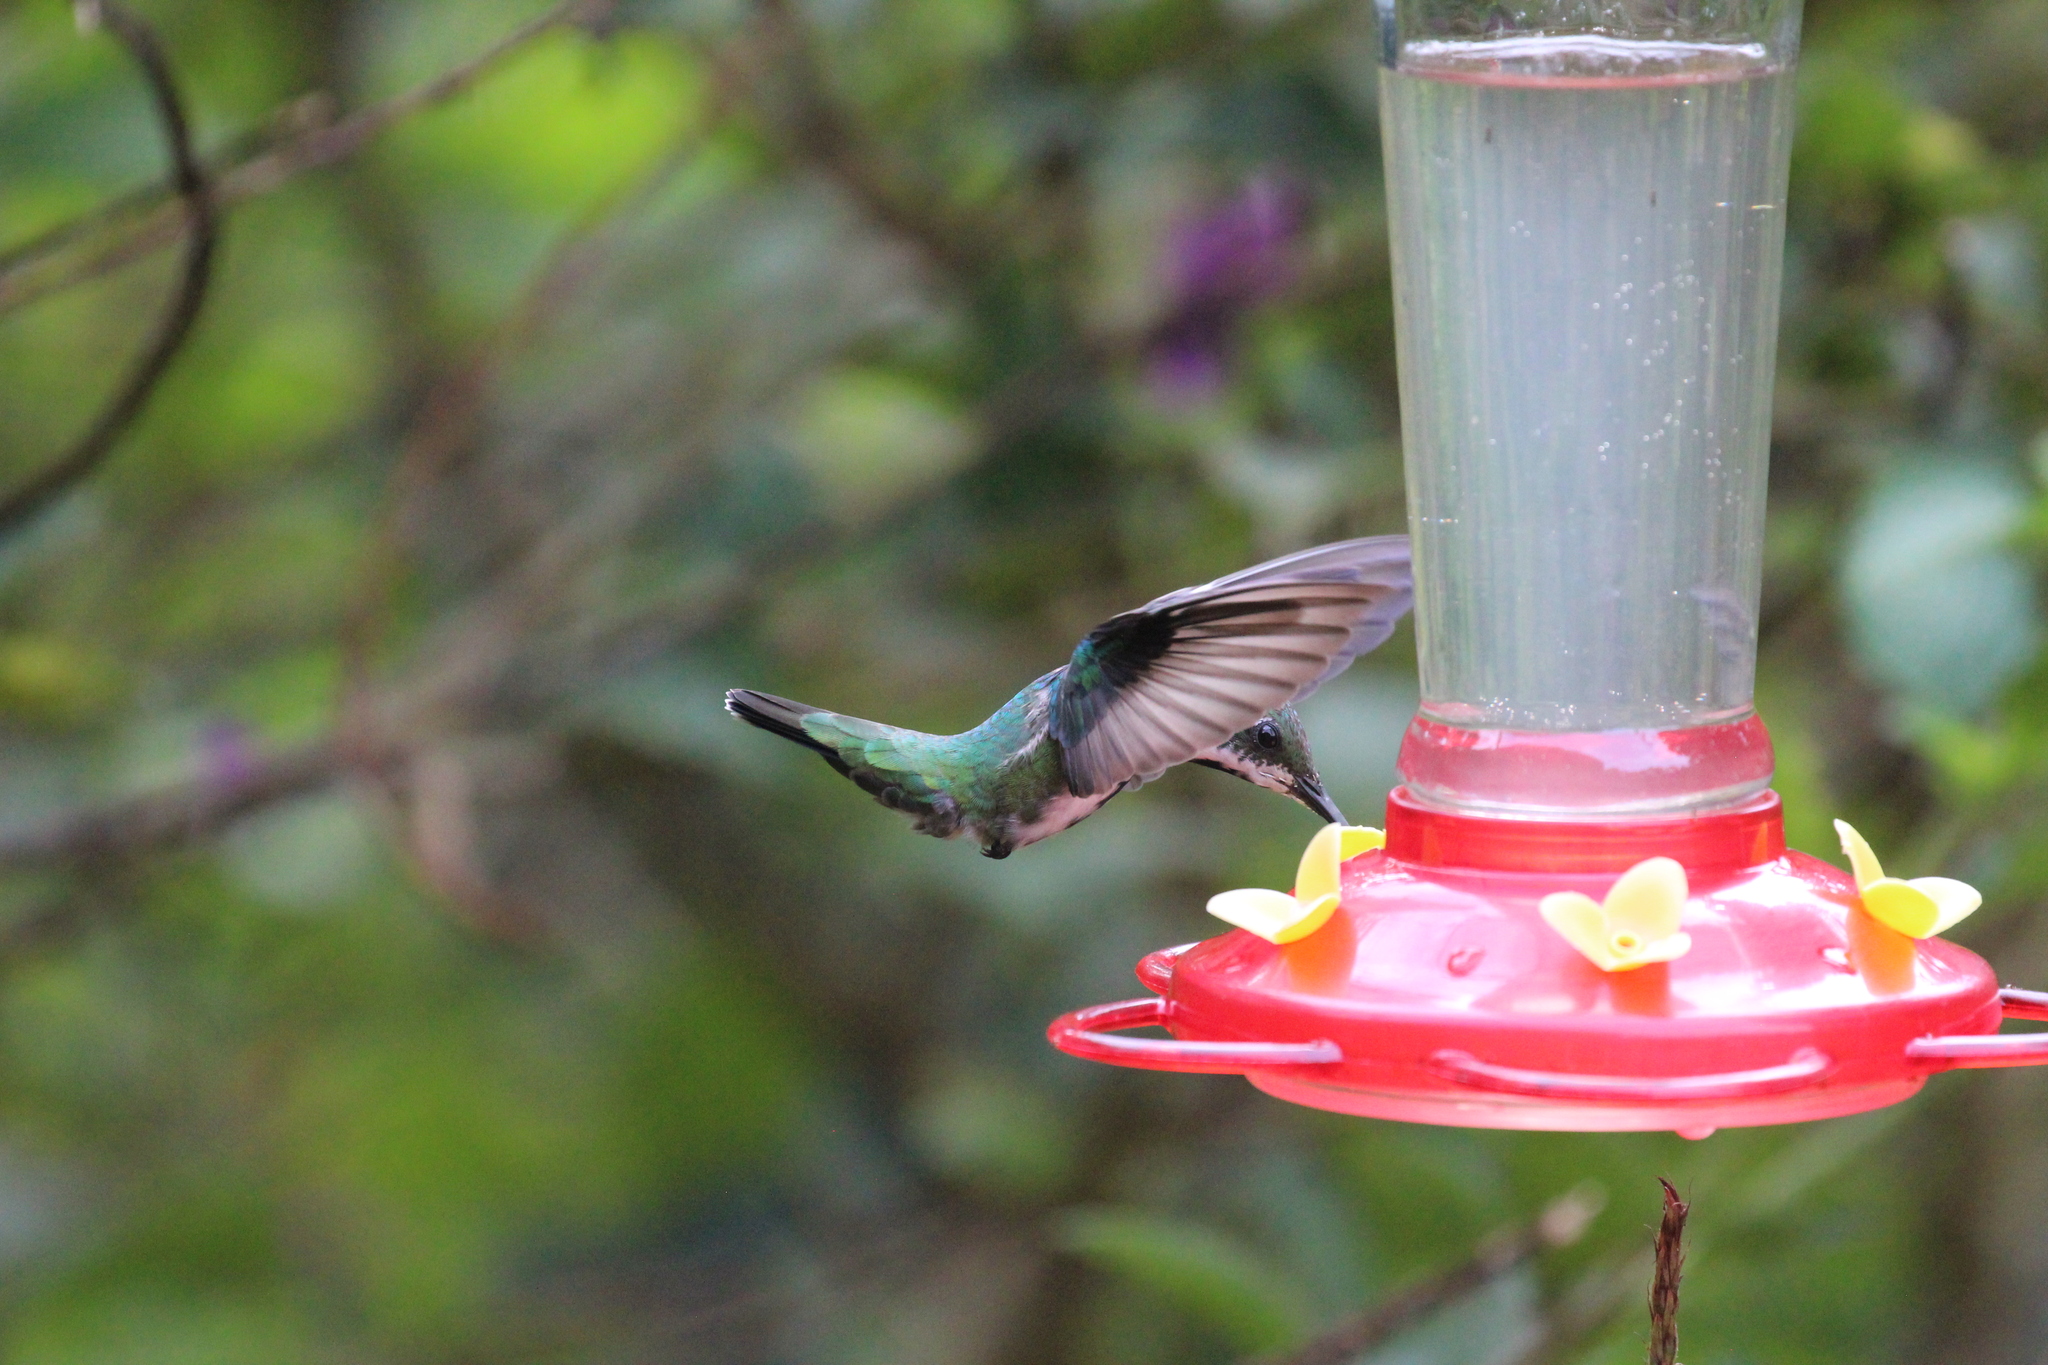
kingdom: Animalia
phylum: Chordata
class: Aves
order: Apodiformes
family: Trochilidae
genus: Anthracothorax
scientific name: Anthracothorax nigricollis
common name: Black-throated mango
